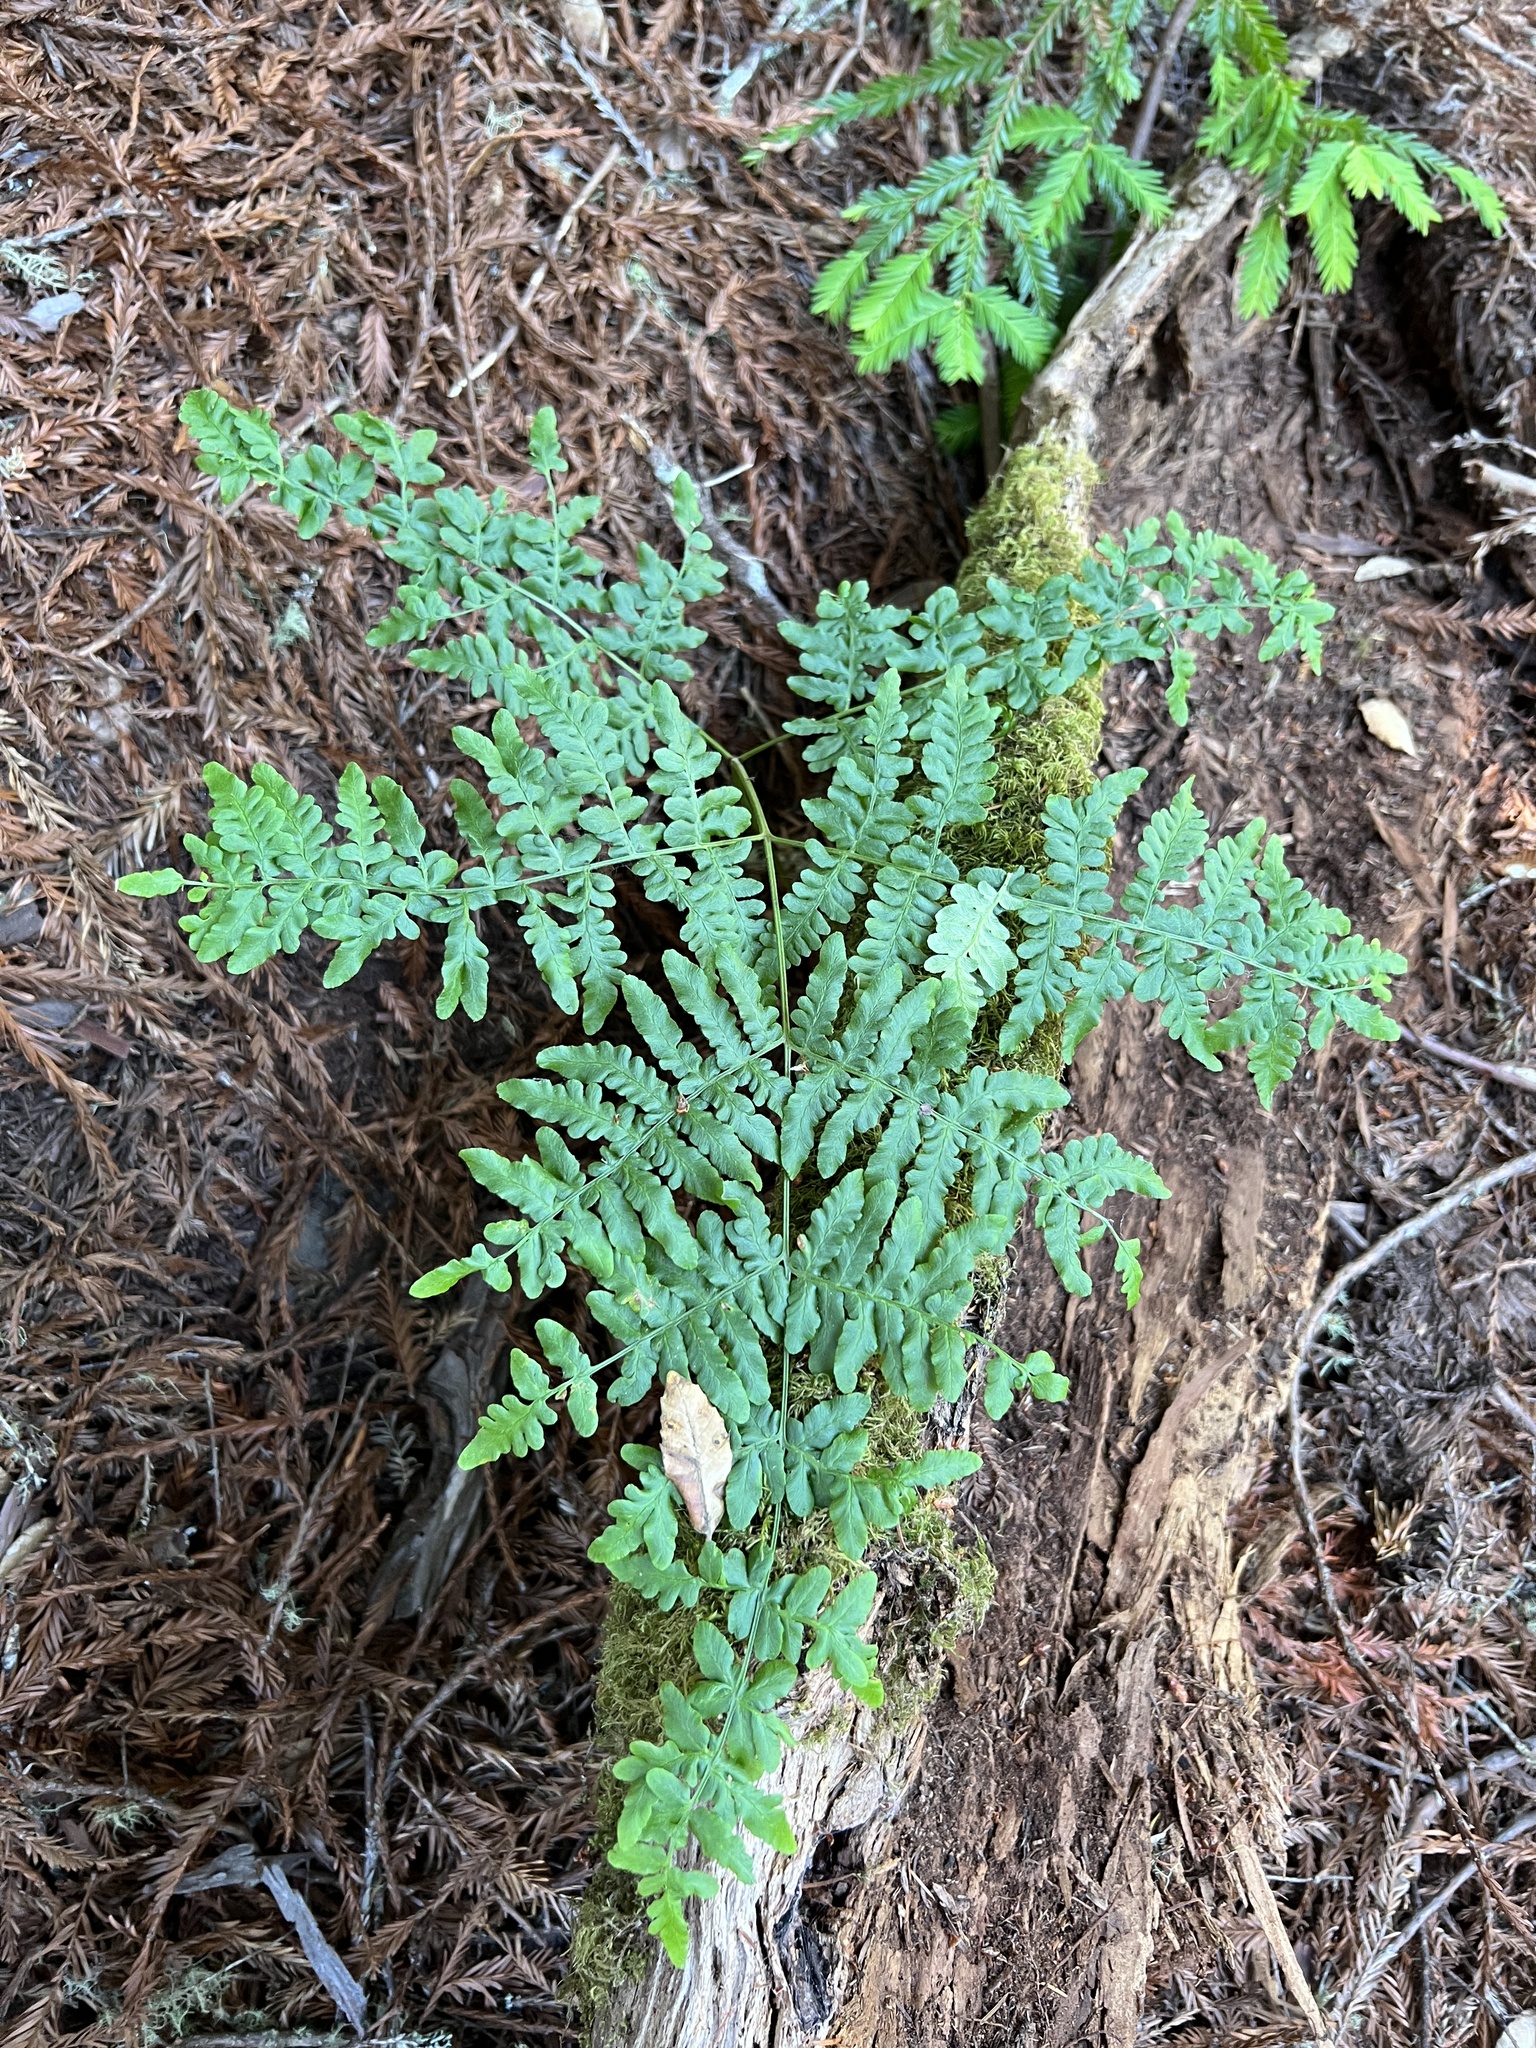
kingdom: Plantae
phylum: Tracheophyta
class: Polypodiopsida
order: Polypodiales
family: Dennstaedtiaceae
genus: Pteridium
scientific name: Pteridium aquilinum
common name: Bracken
